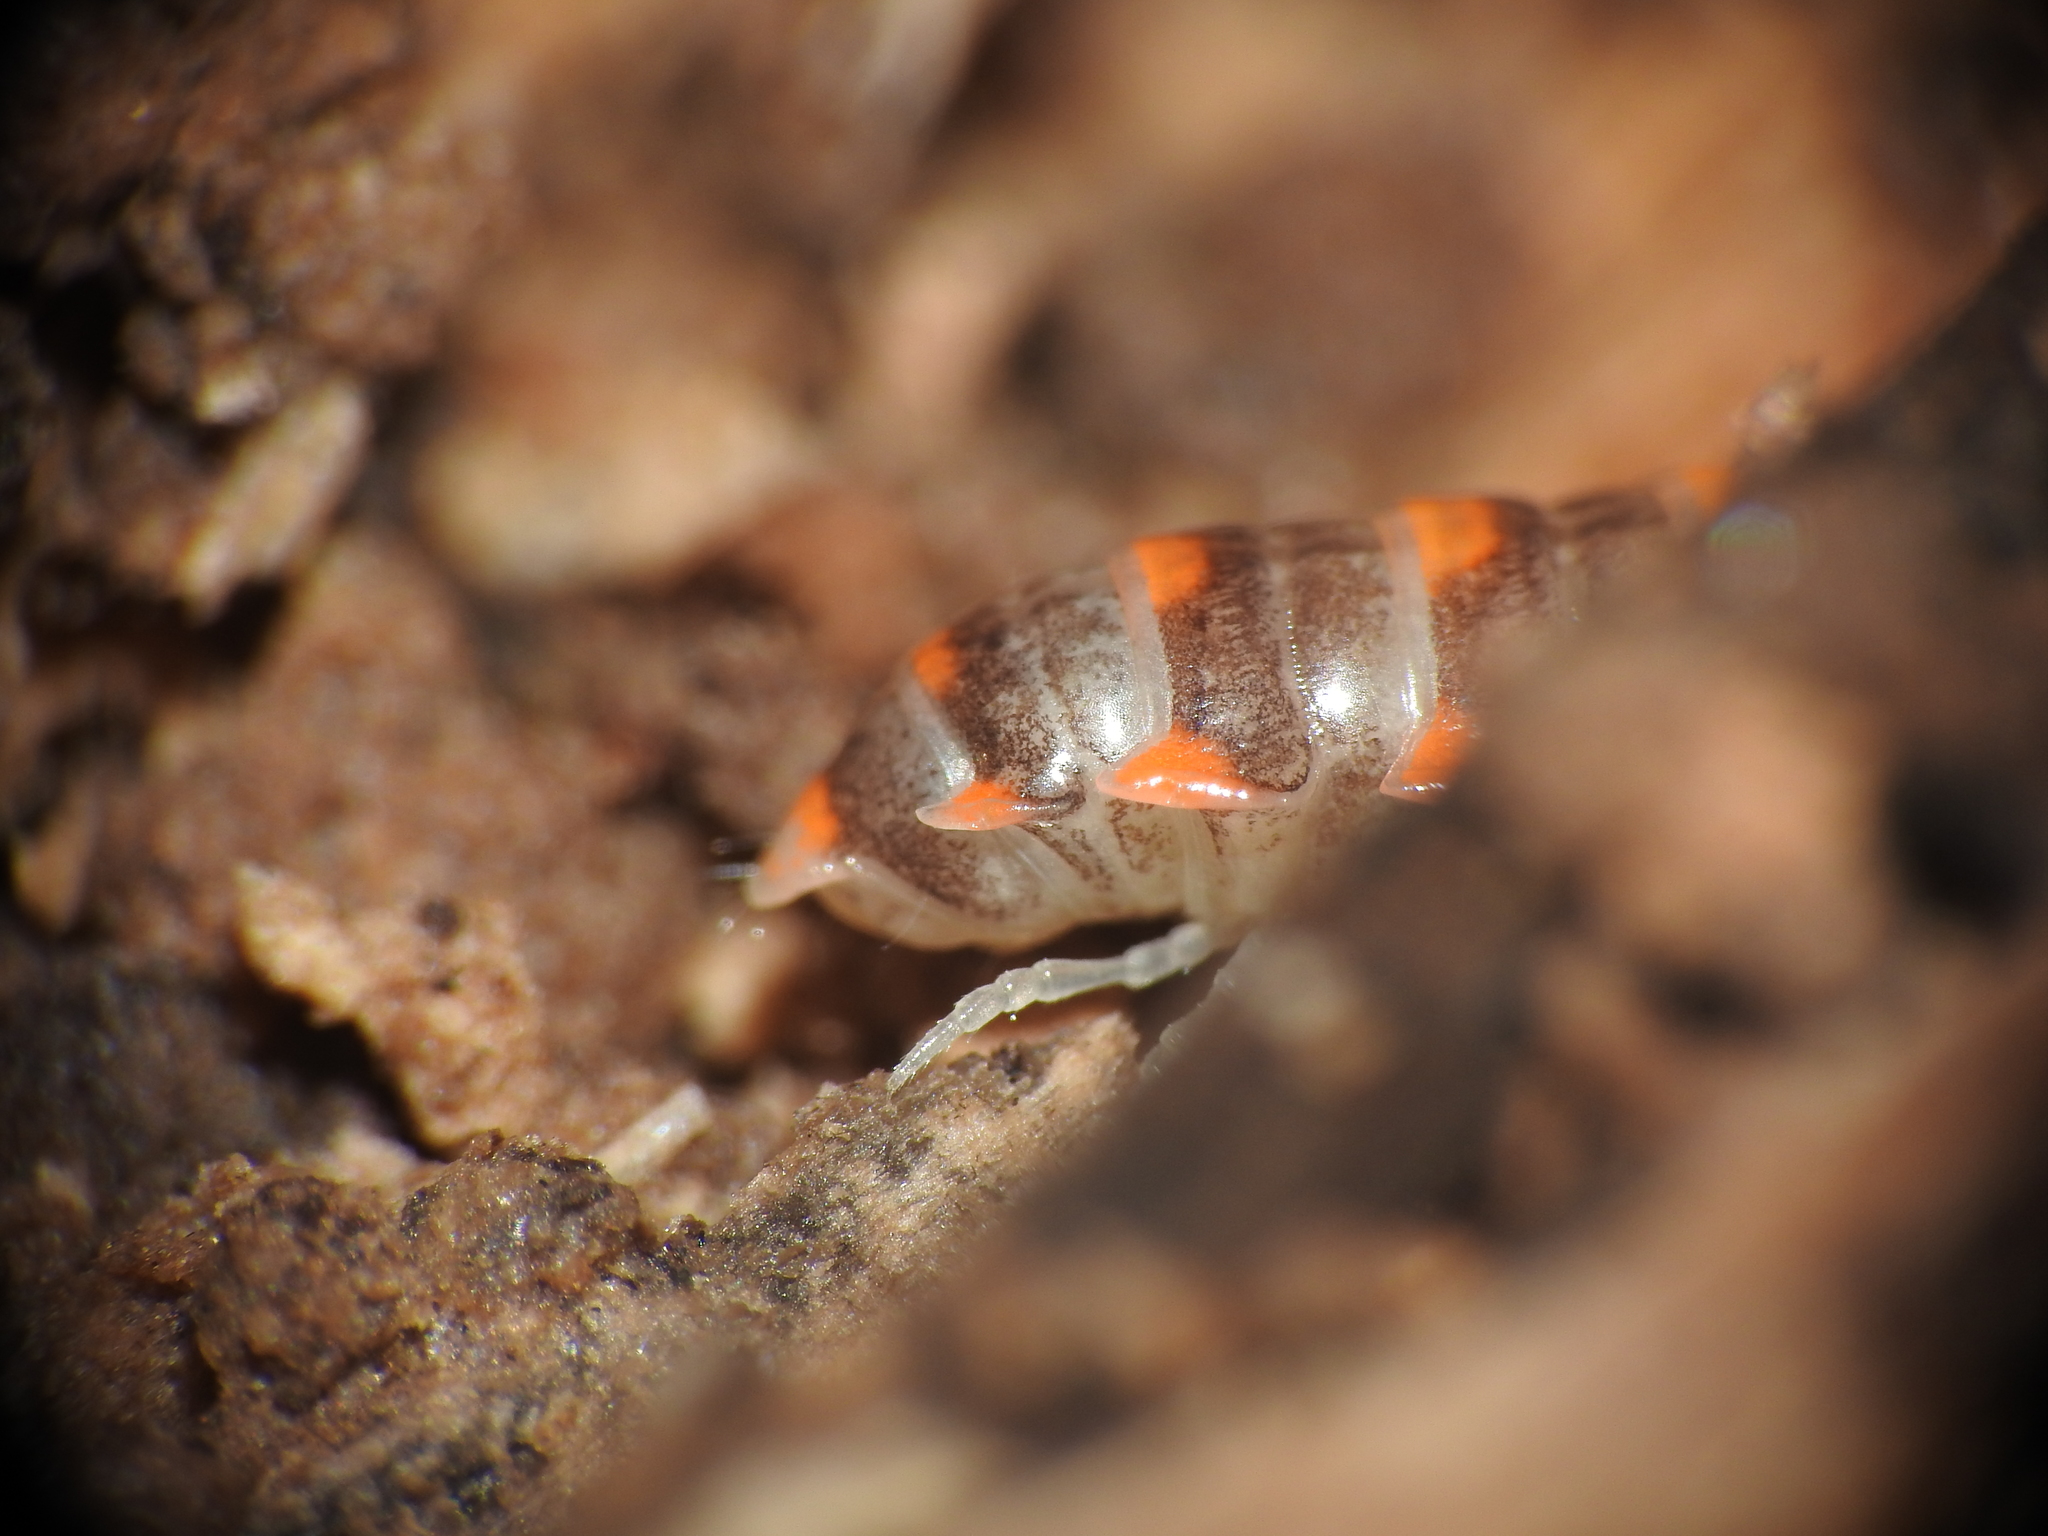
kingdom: Animalia
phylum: Arthropoda
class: Diplopoda
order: Polydesmida
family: Xystodesmidae
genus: Euryurus
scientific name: Euryurus leachii
